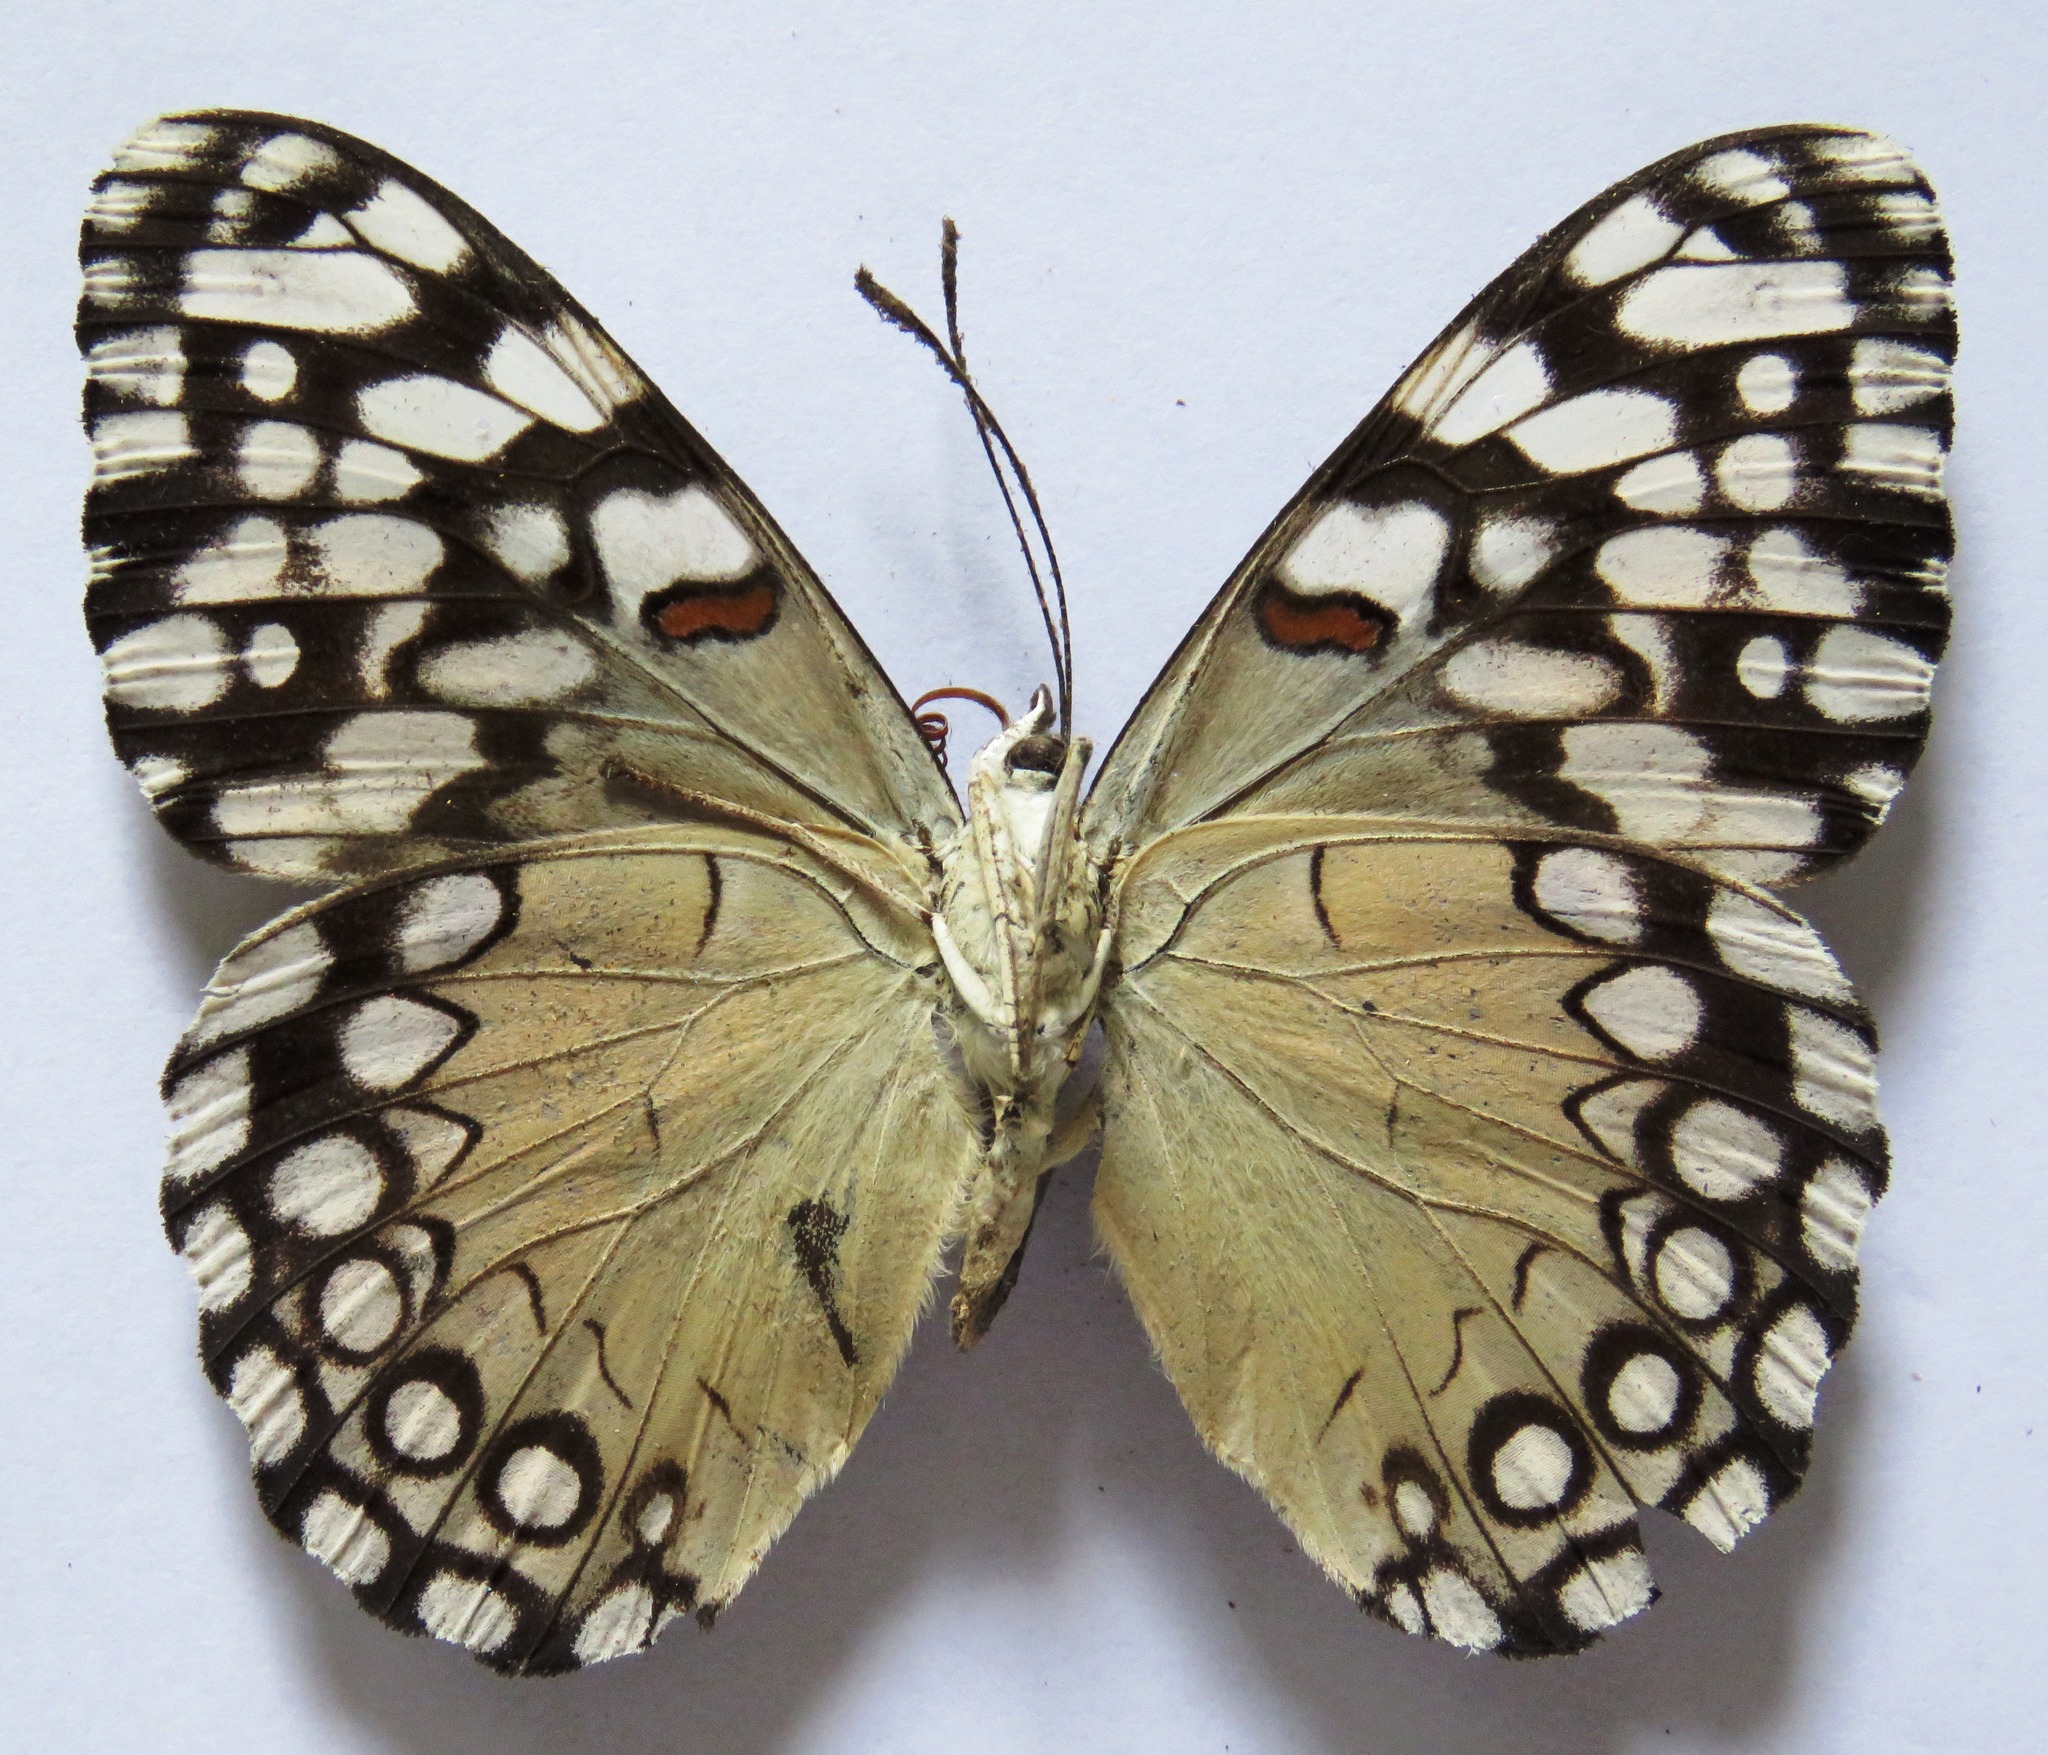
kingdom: Animalia
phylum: Arthropoda
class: Insecta
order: Lepidoptera
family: Nymphalidae
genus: Hamadryas
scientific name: Hamadryas guatemalena
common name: Guatemalan cracker
